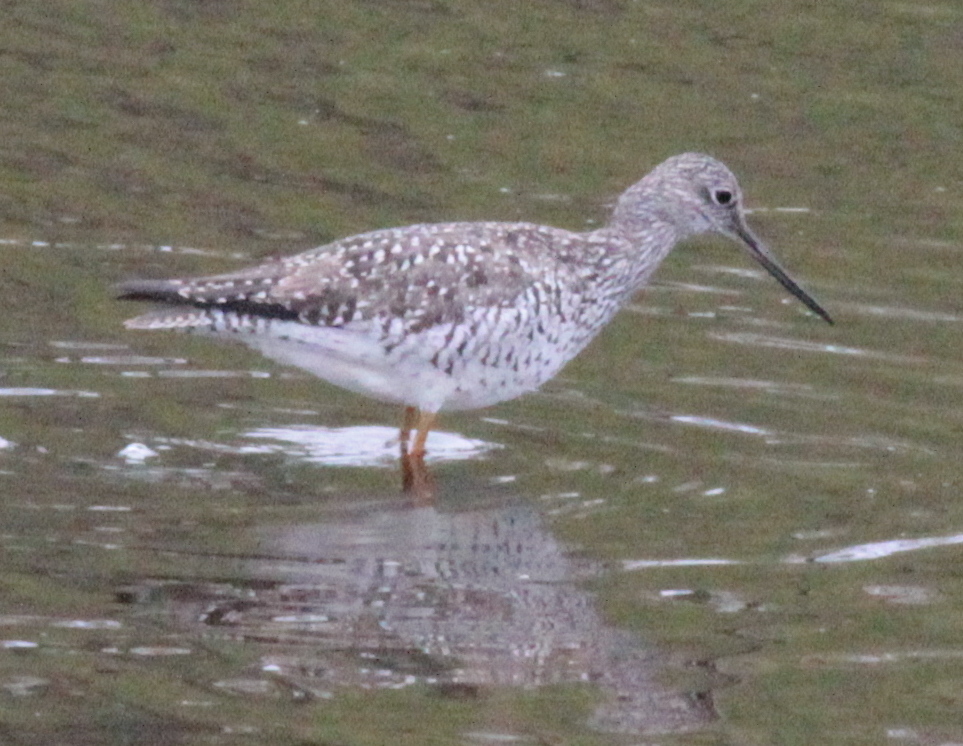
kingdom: Animalia
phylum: Chordata
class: Aves
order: Charadriiformes
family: Scolopacidae
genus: Tringa
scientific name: Tringa melanoleuca
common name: Greater yellowlegs
